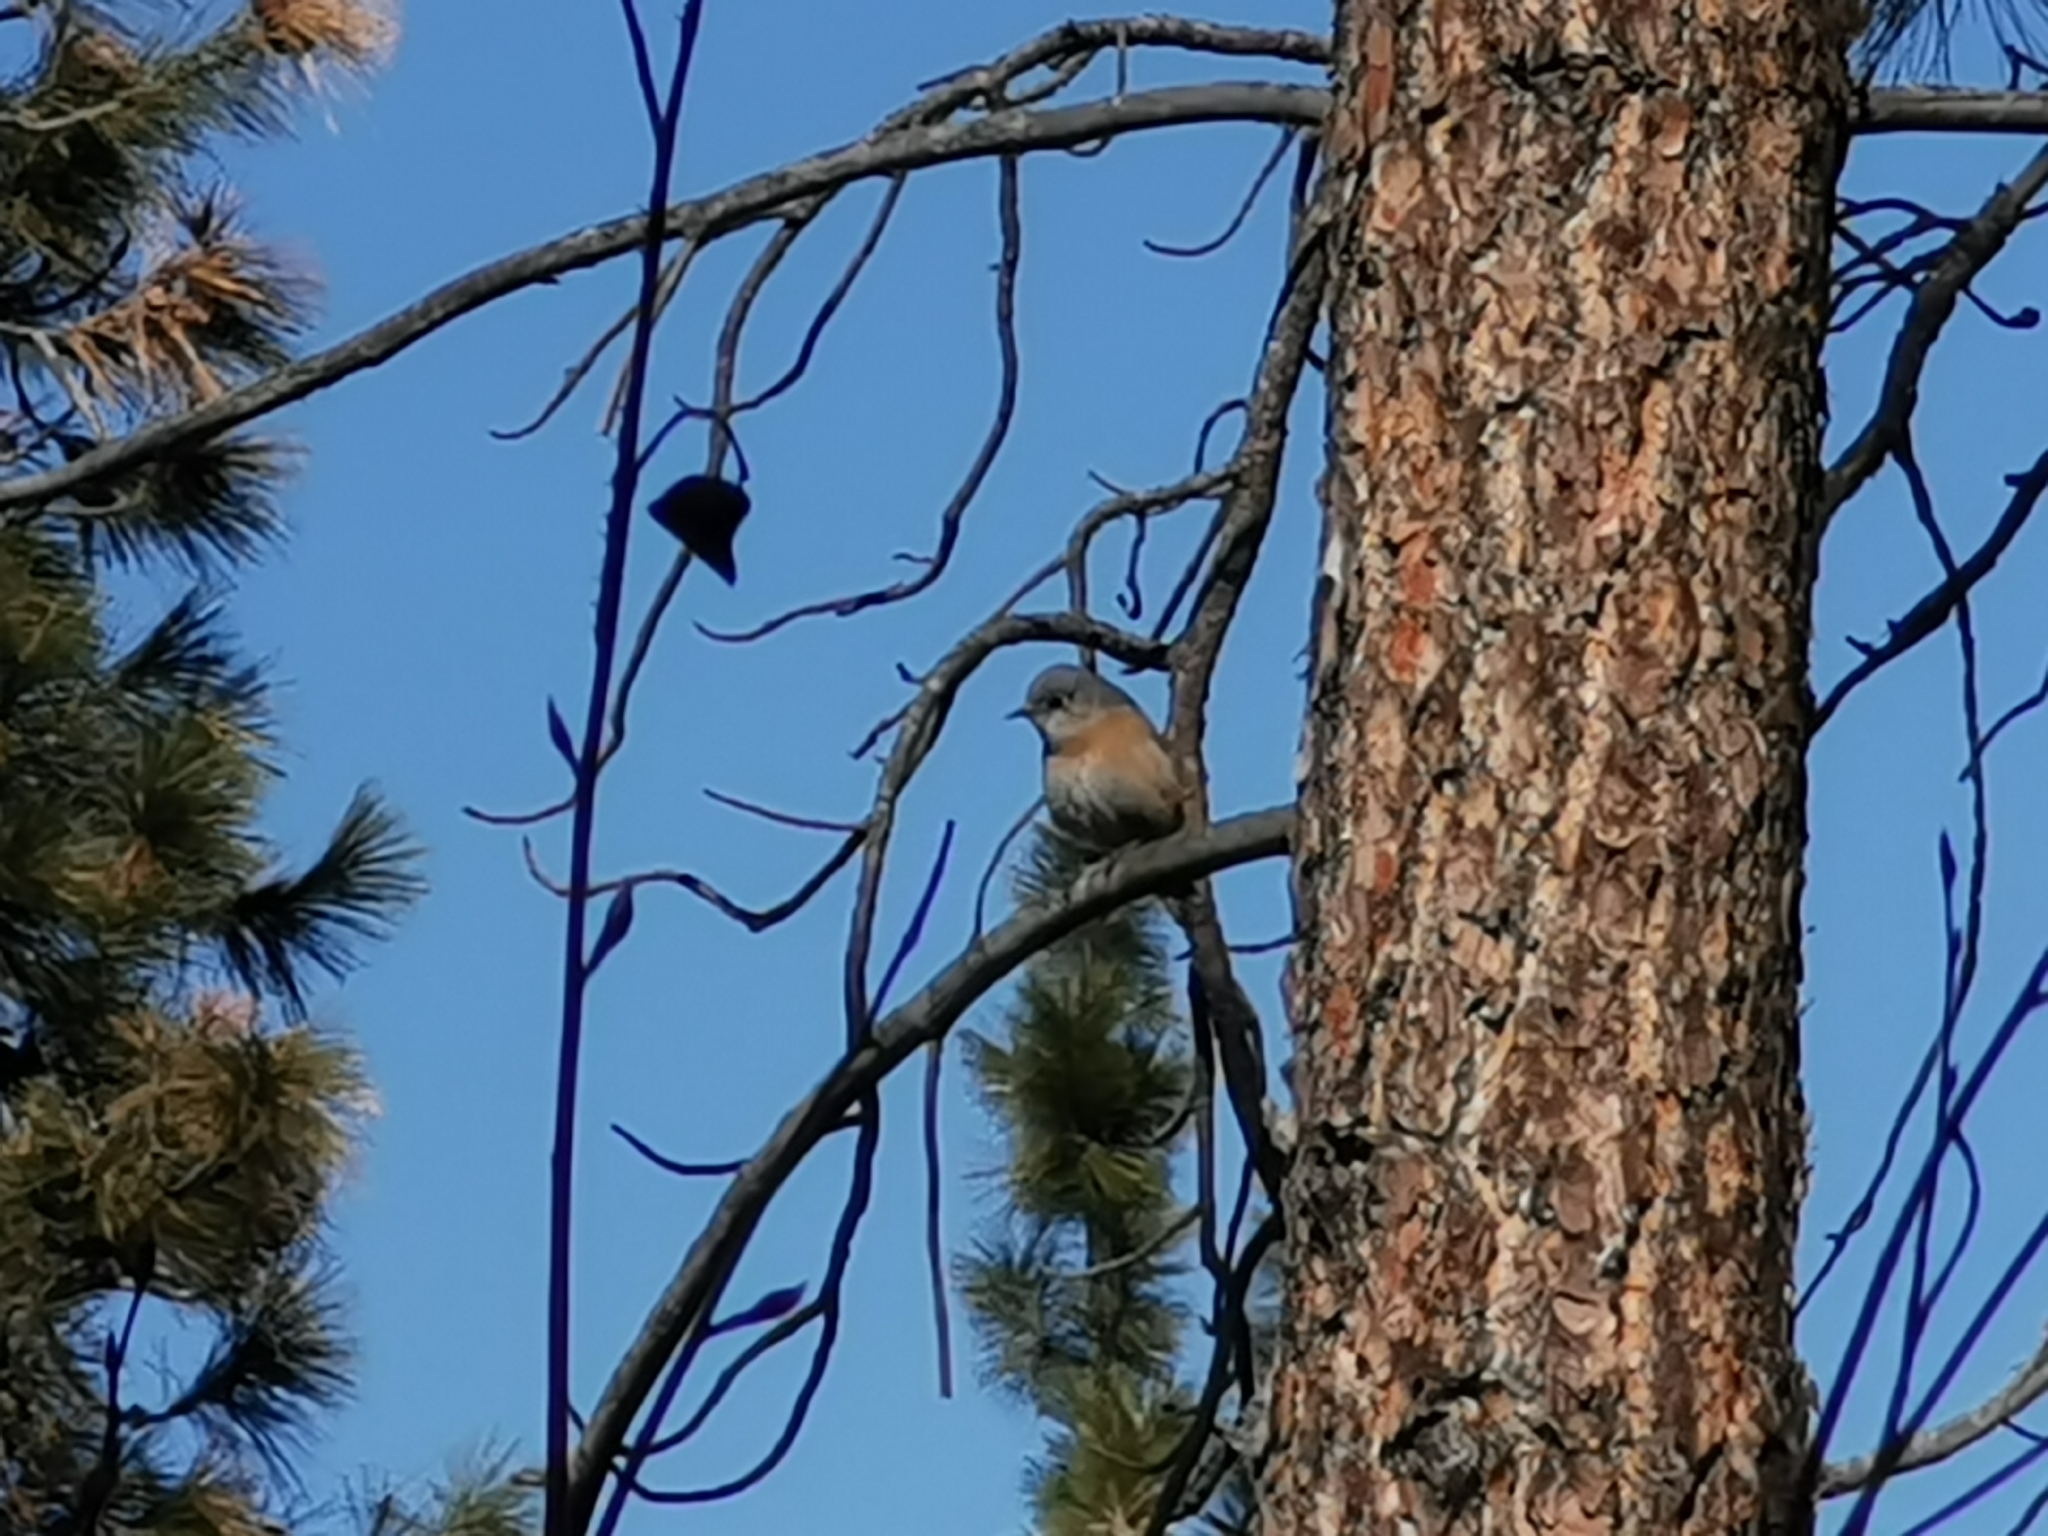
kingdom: Animalia
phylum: Chordata
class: Aves
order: Passeriformes
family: Turdidae
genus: Sialia
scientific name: Sialia mexicana
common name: Western bluebird
